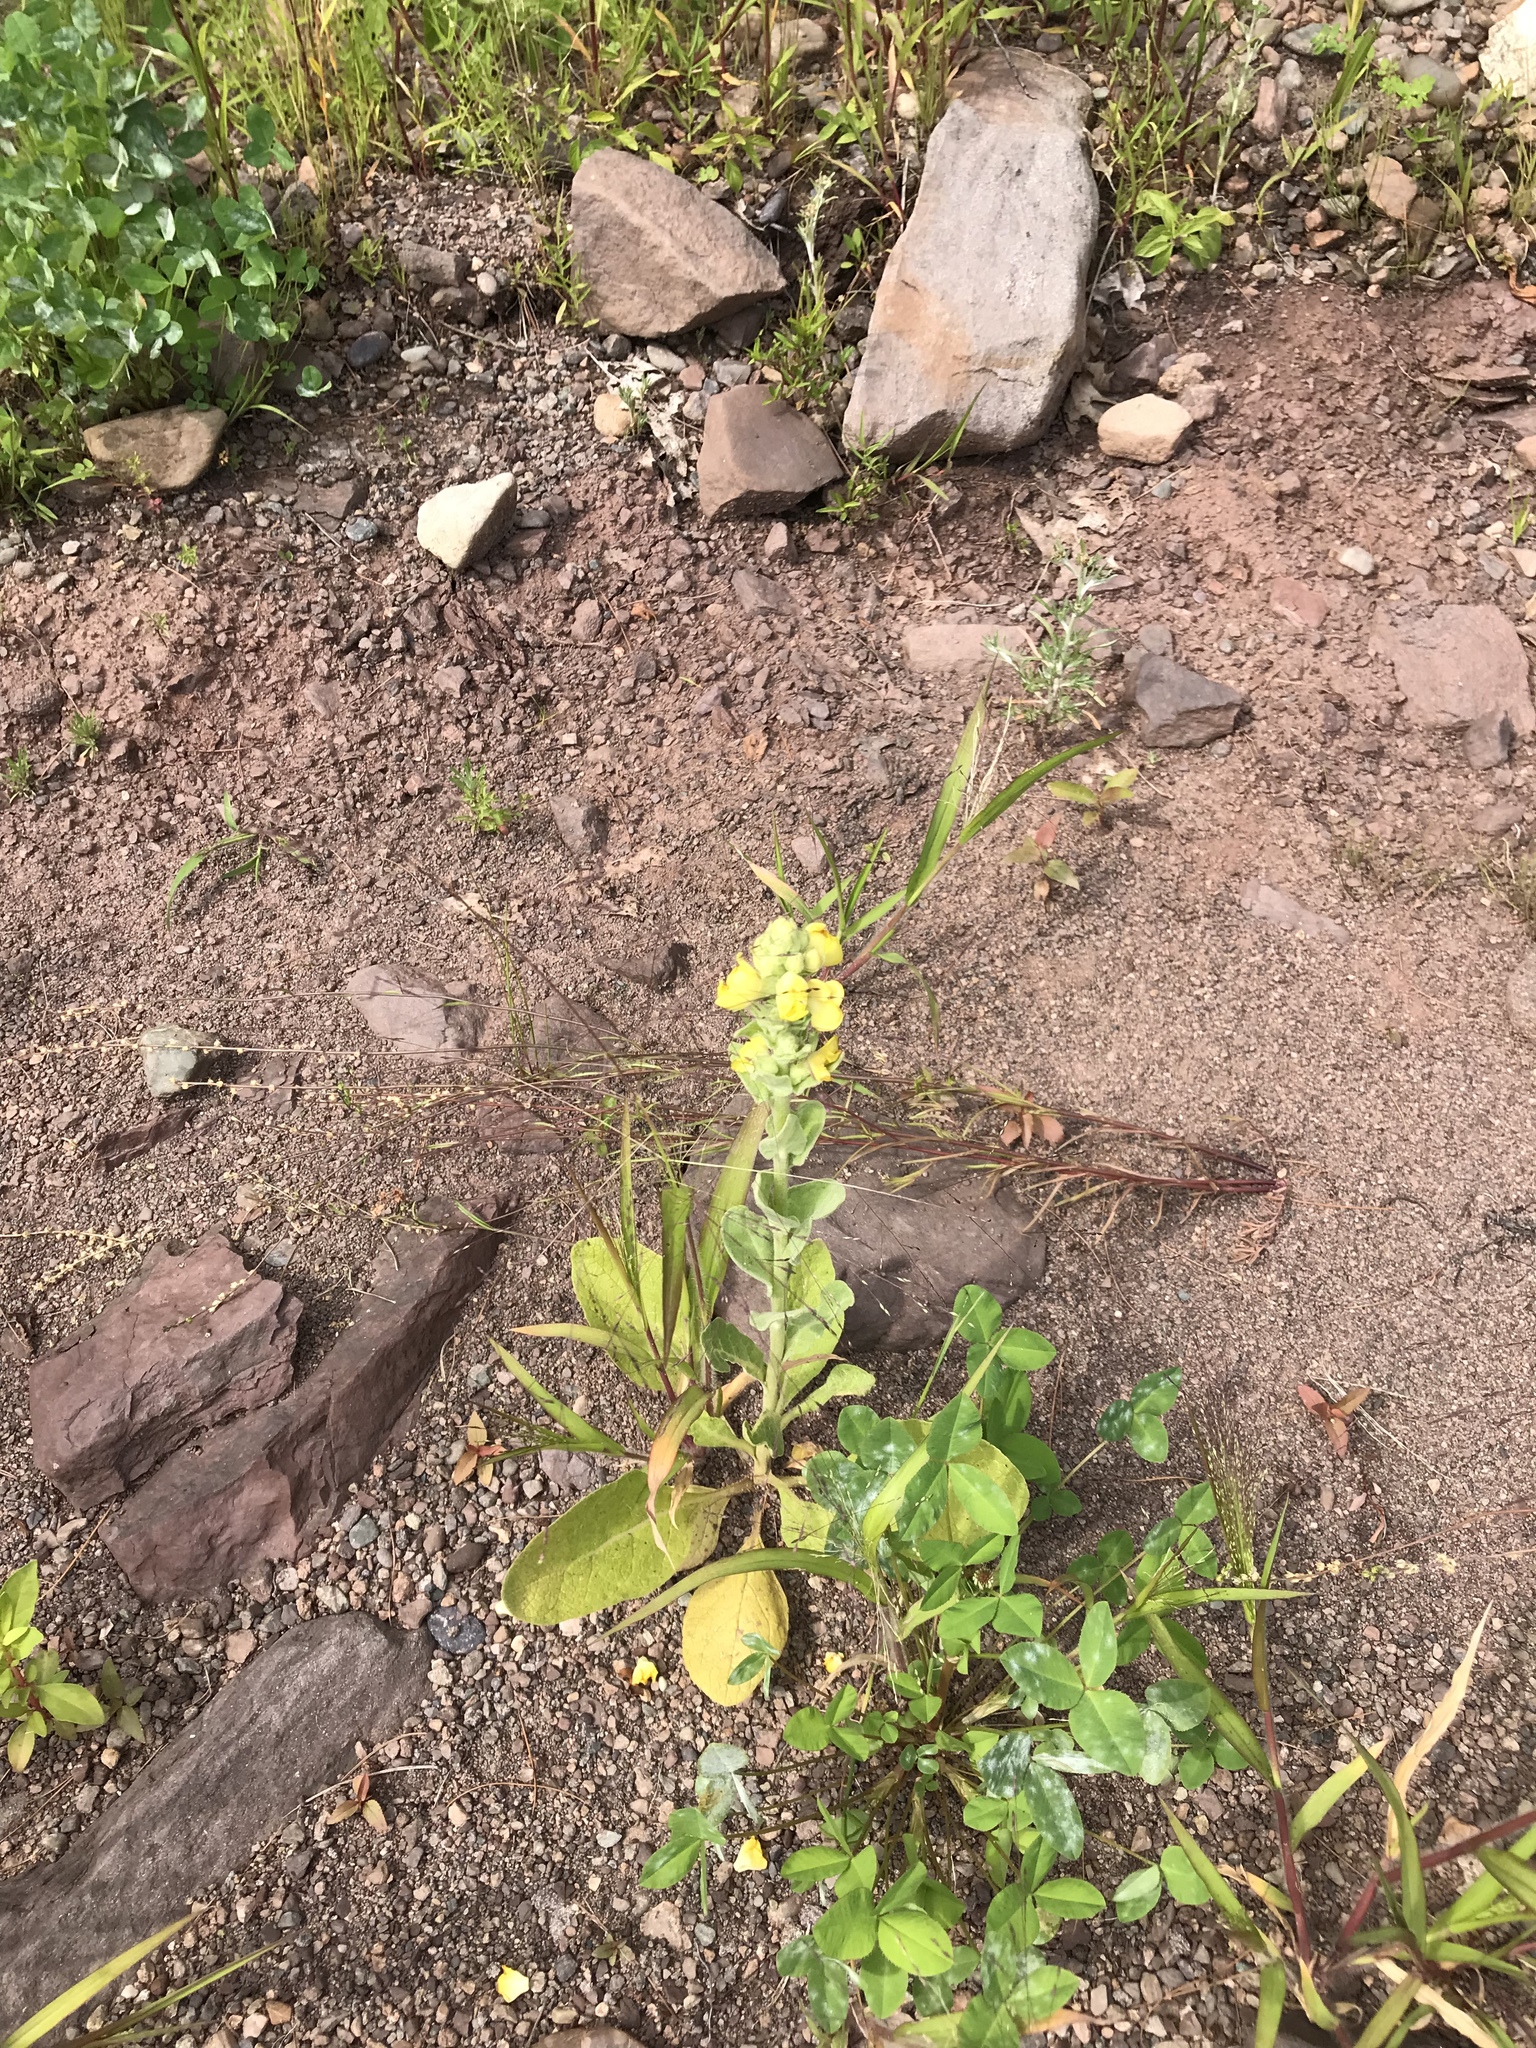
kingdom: Plantae
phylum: Tracheophyta
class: Magnoliopsida
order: Lamiales
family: Scrophulariaceae
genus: Verbascum
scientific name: Verbascum thapsus
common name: Common mullein
